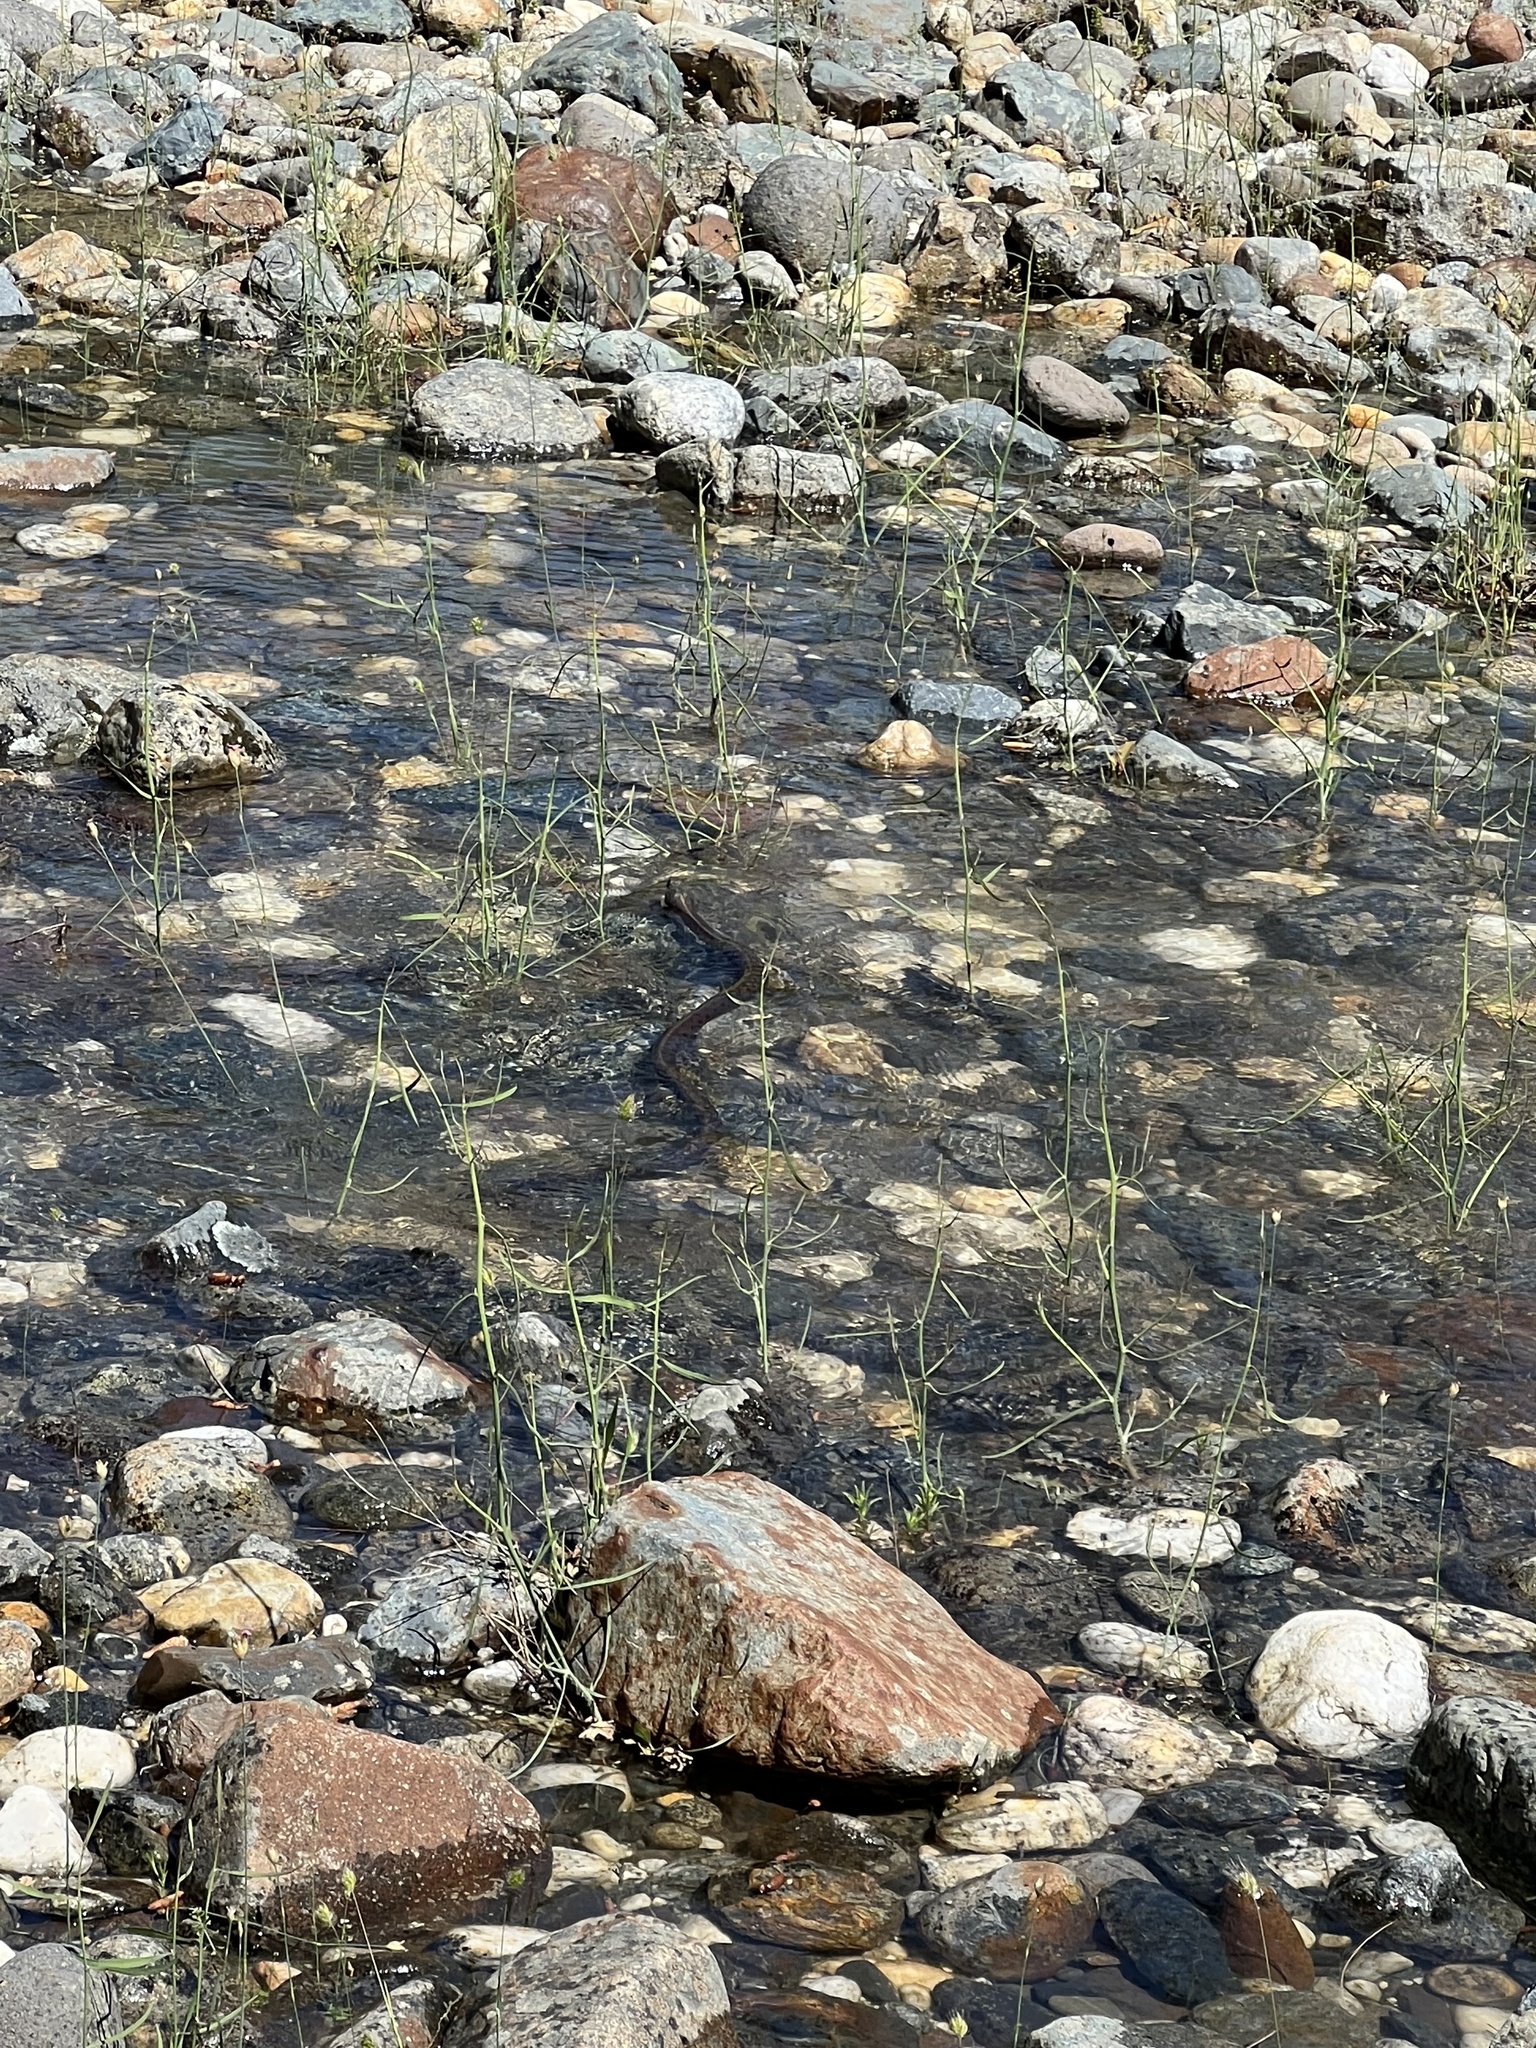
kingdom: Animalia
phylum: Chordata
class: Squamata
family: Colubridae
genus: Thamnophis
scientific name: Thamnophis couchii
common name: Western aquatic garter snake
